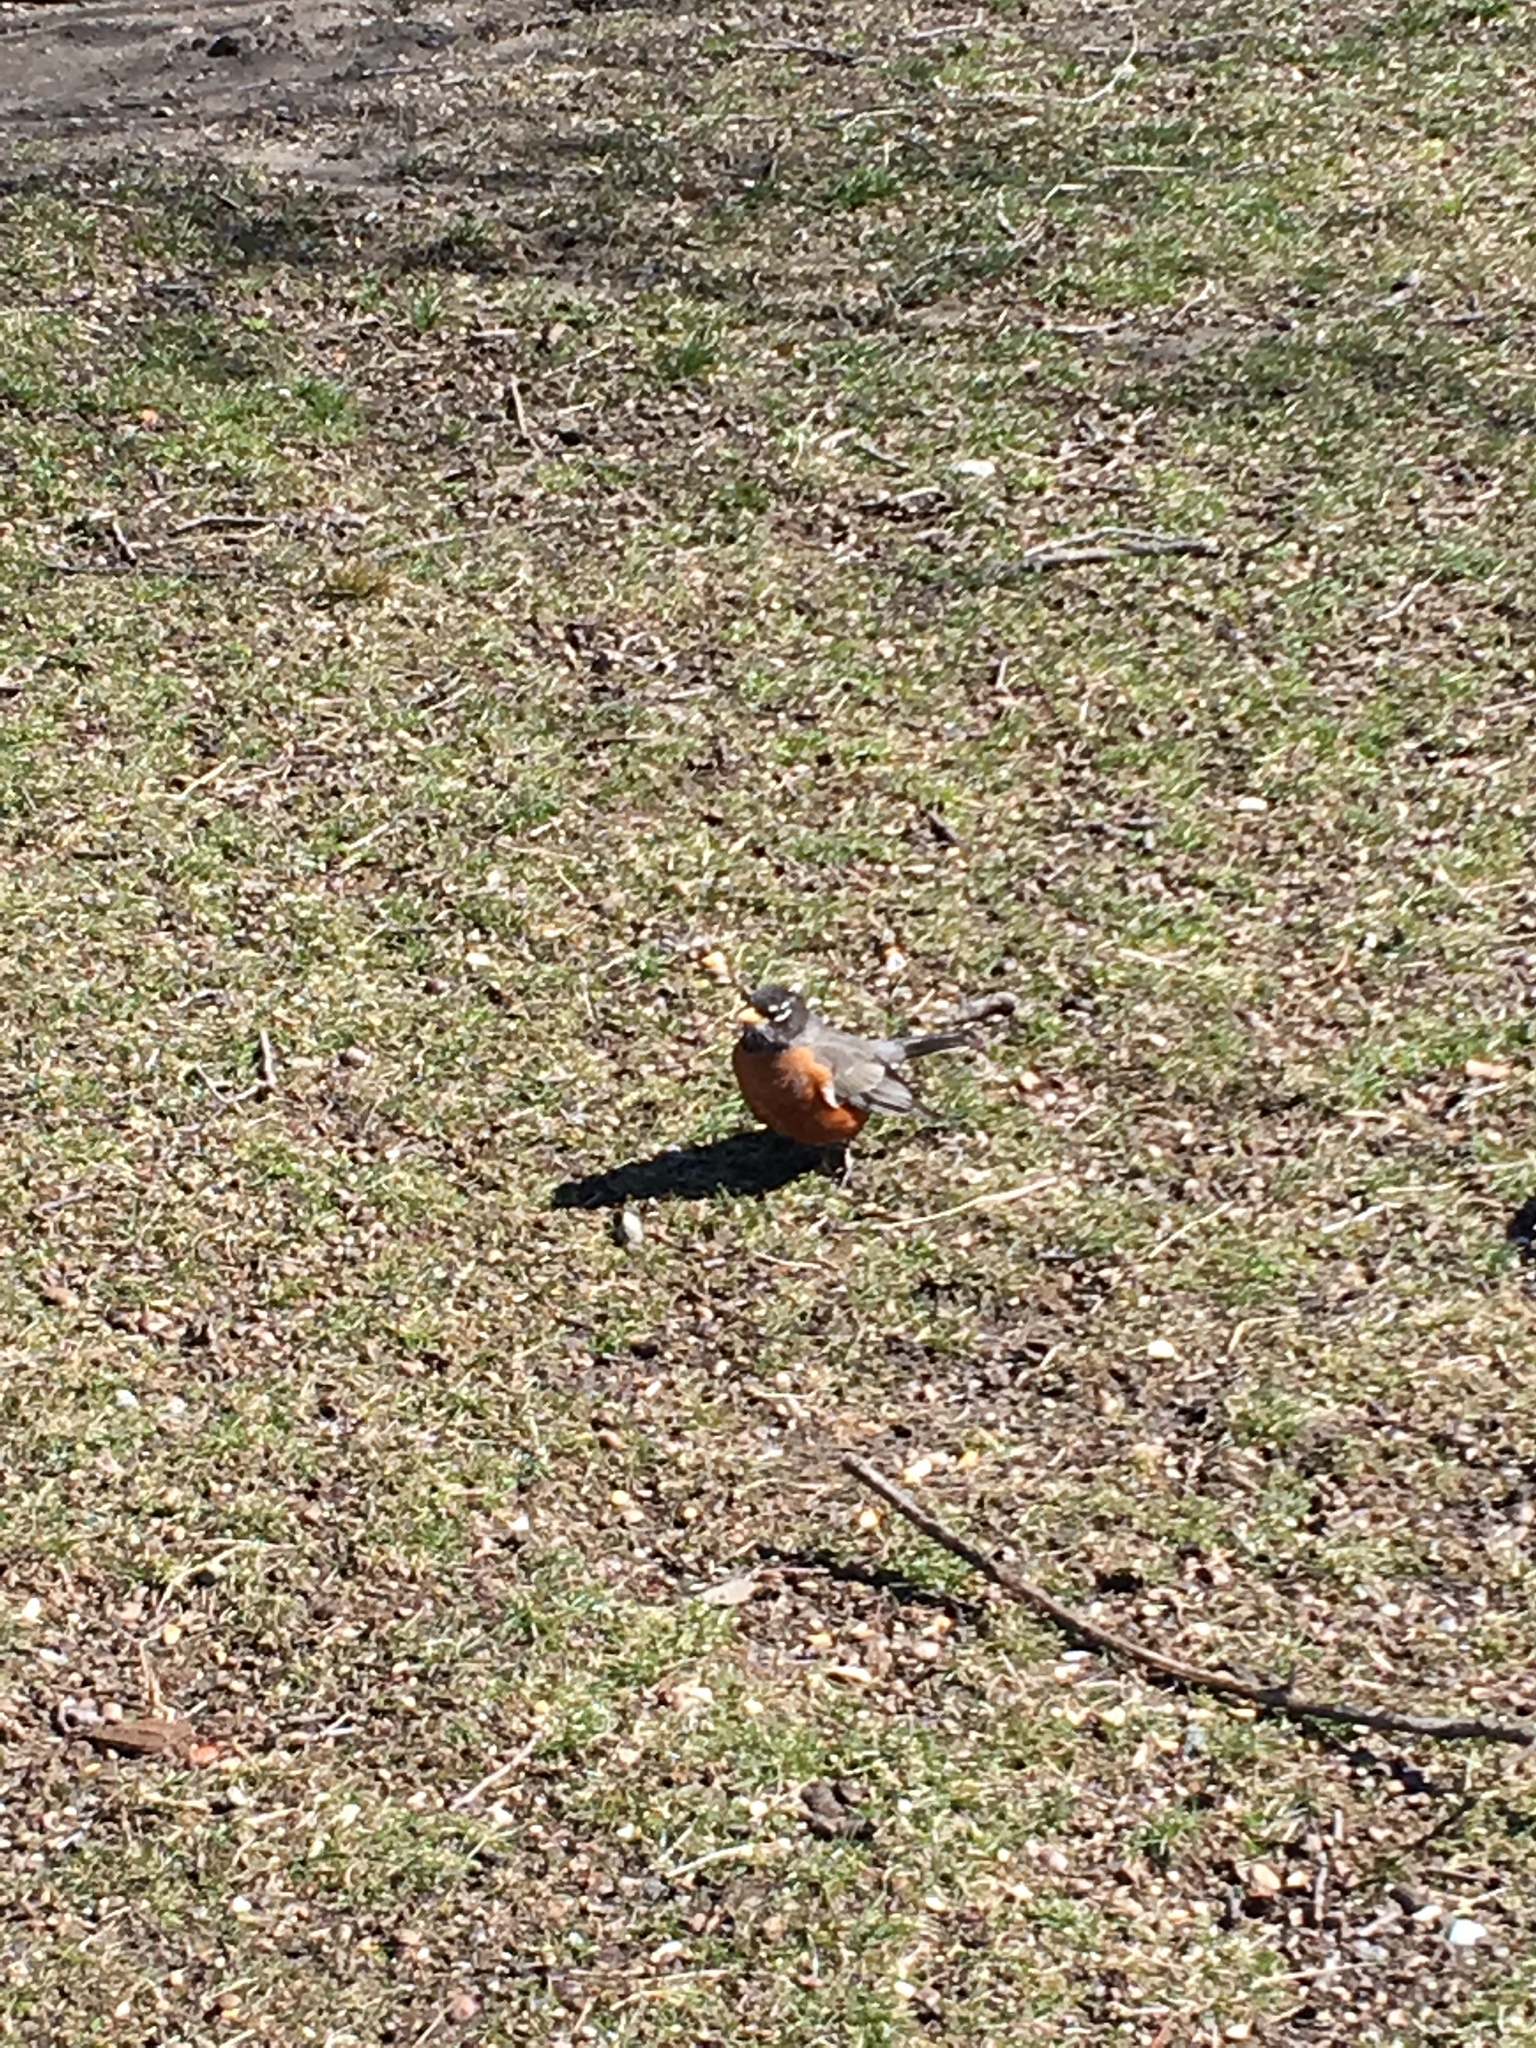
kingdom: Animalia
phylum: Chordata
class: Aves
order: Passeriformes
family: Turdidae
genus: Turdus
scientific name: Turdus migratorius
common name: American robin
